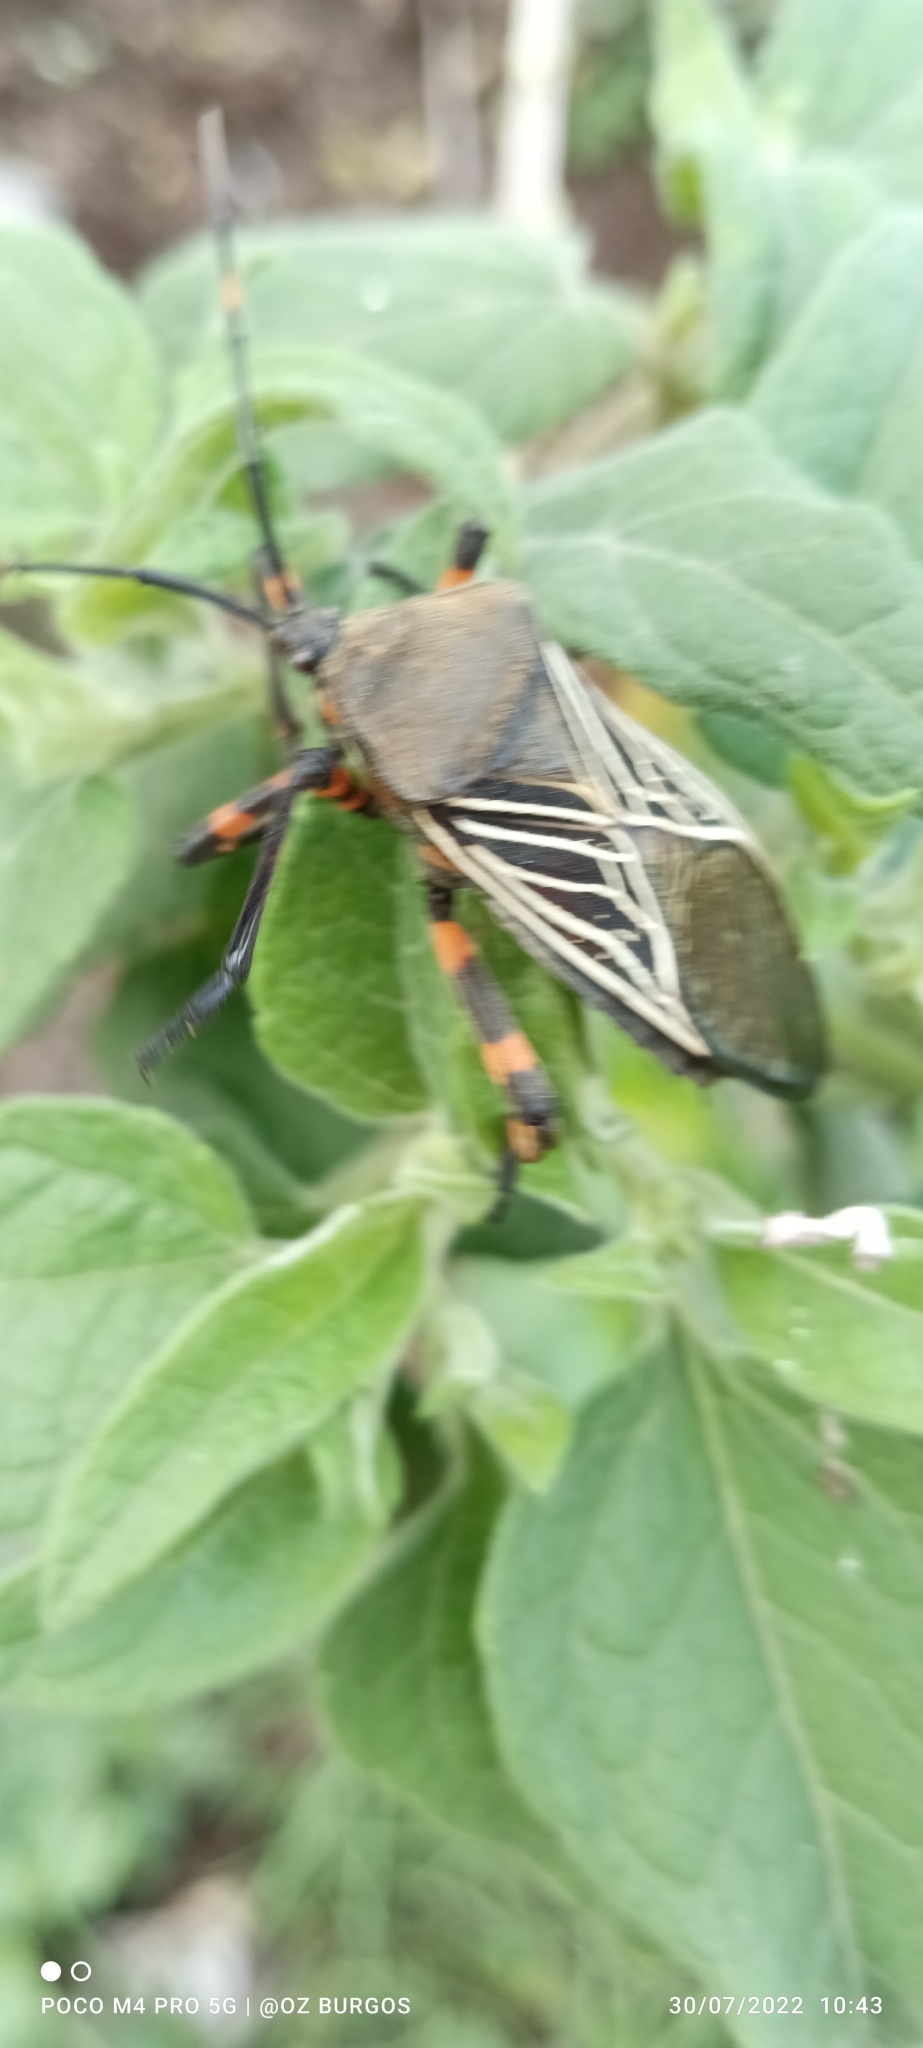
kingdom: Animalia
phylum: Arthropoda
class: Insecta
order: Hemiptera
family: Coreidae
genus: Thasus
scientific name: Thasus
